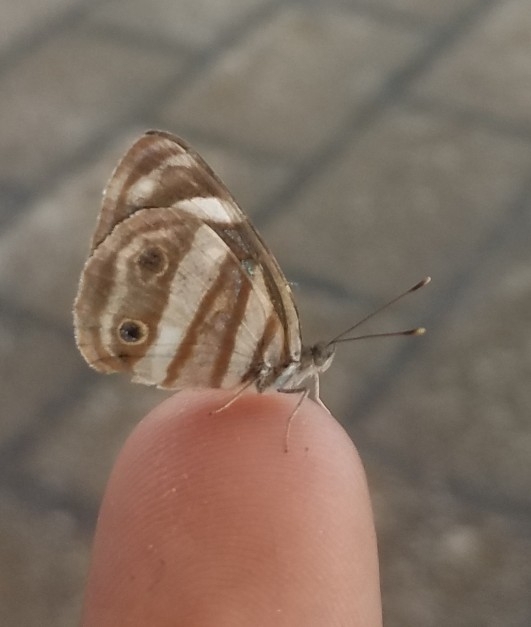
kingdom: Animalia
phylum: Arthropoda
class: Insecta
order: Lepidoptera
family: Nymphalidae
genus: Dynamine
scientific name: Dynamine mylitta
